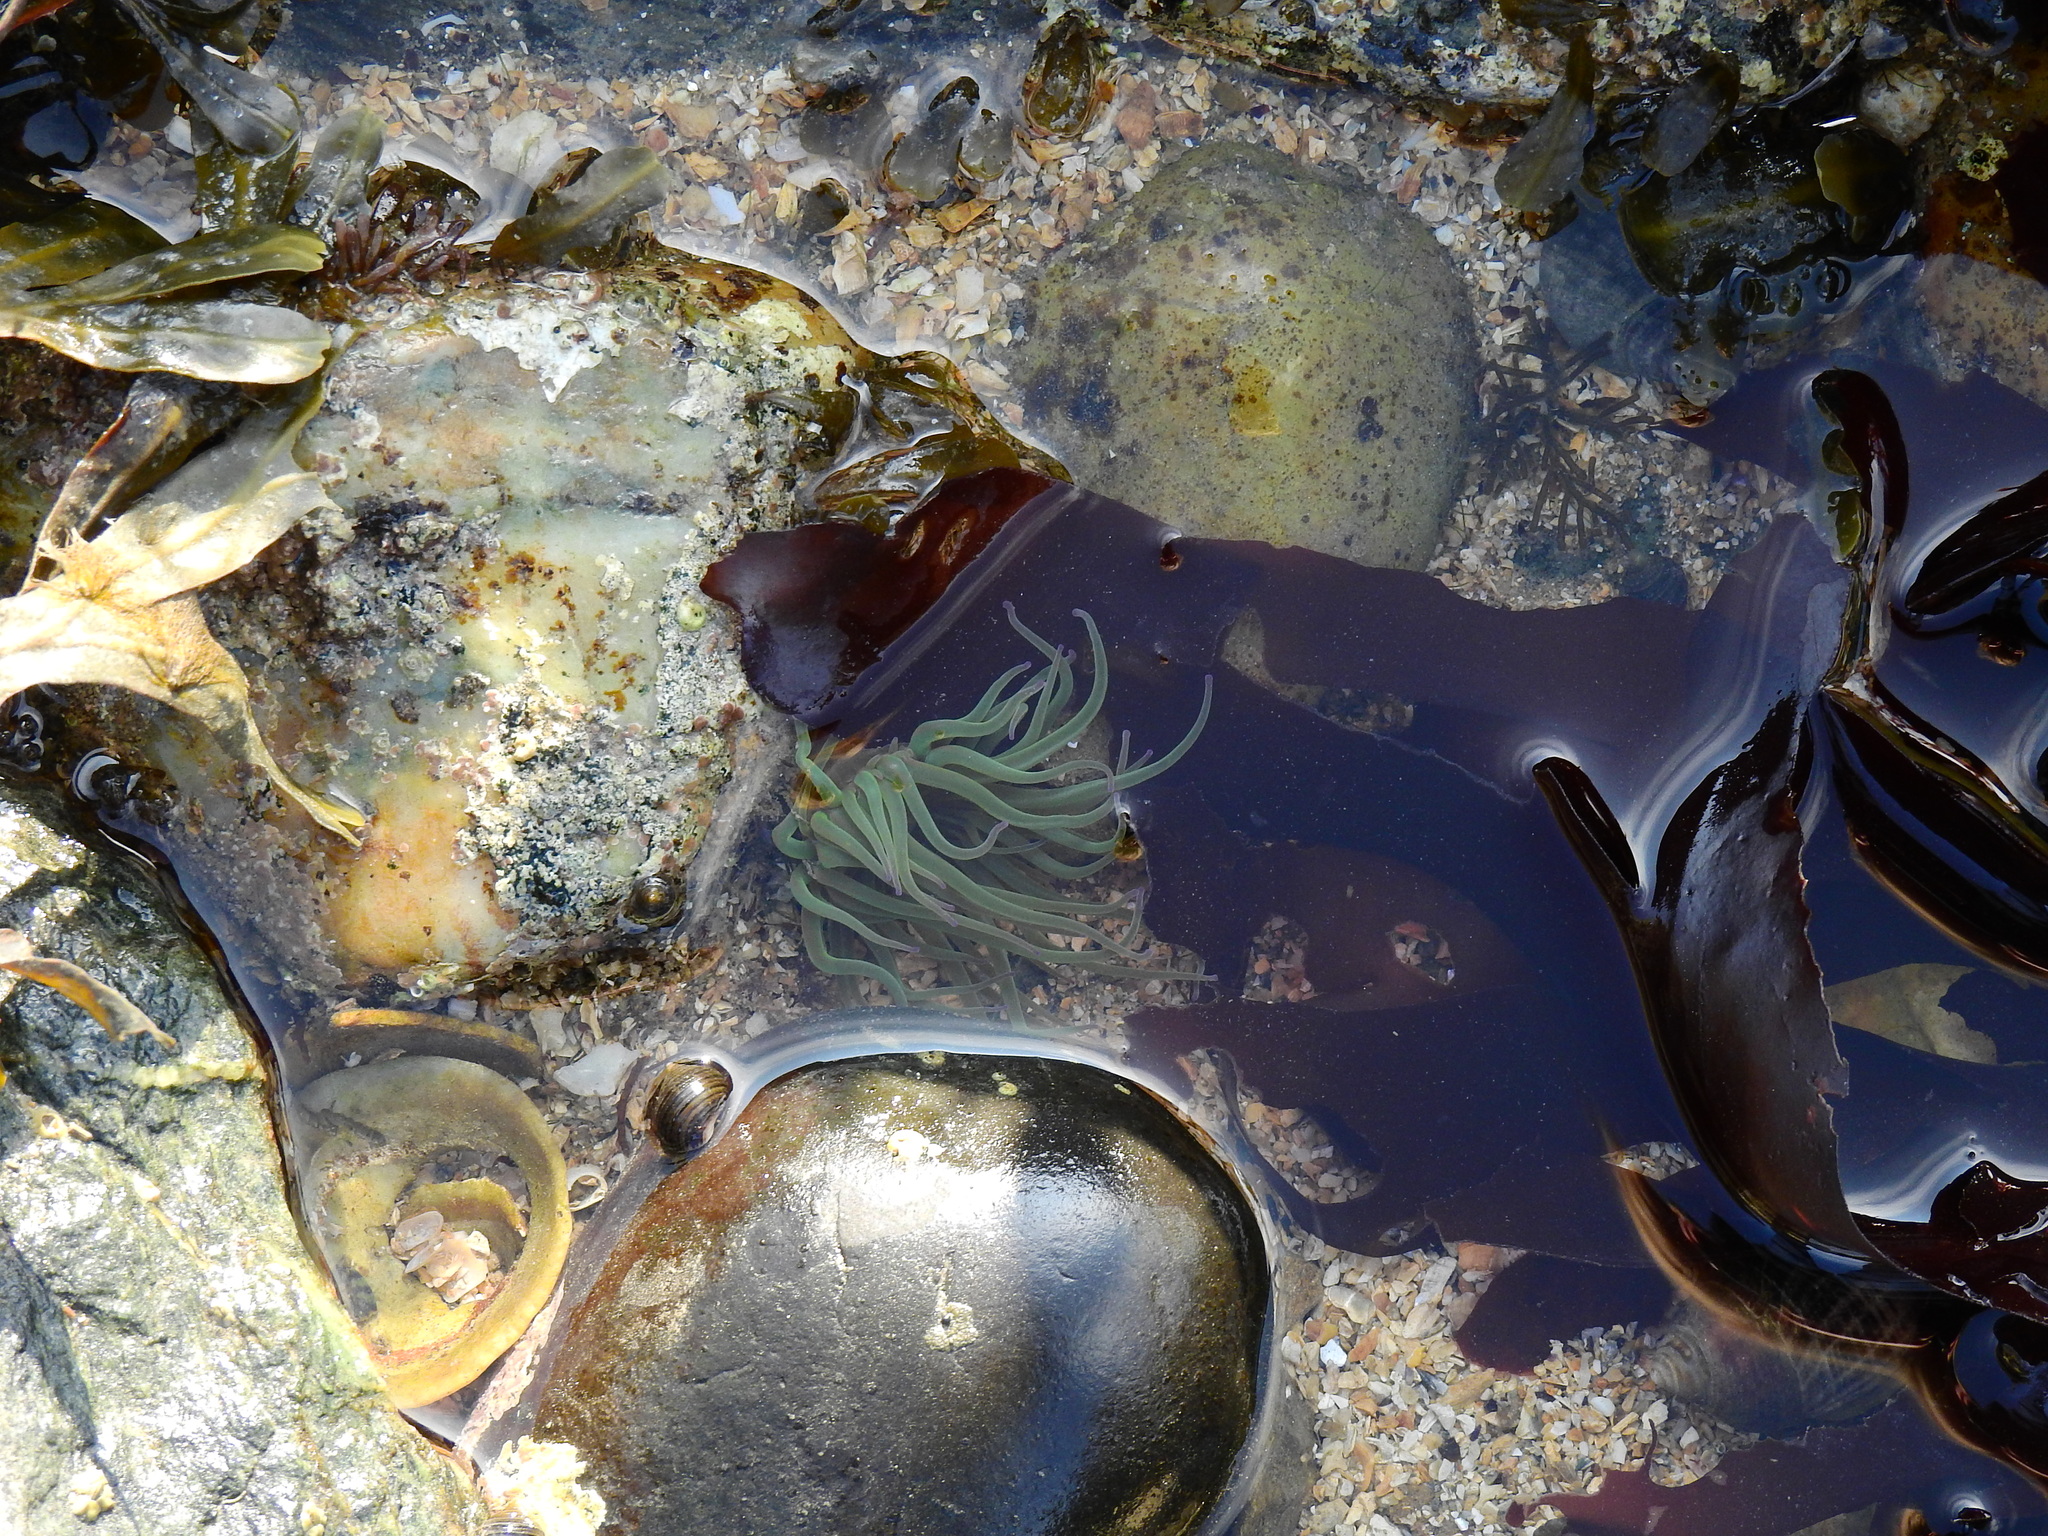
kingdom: Animalia
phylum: Cnidaria
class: Anthozoa
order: Actiniaria
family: Actiniidae
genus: Anemonia
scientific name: Anemonia viridis
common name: Snakelocks anemone
